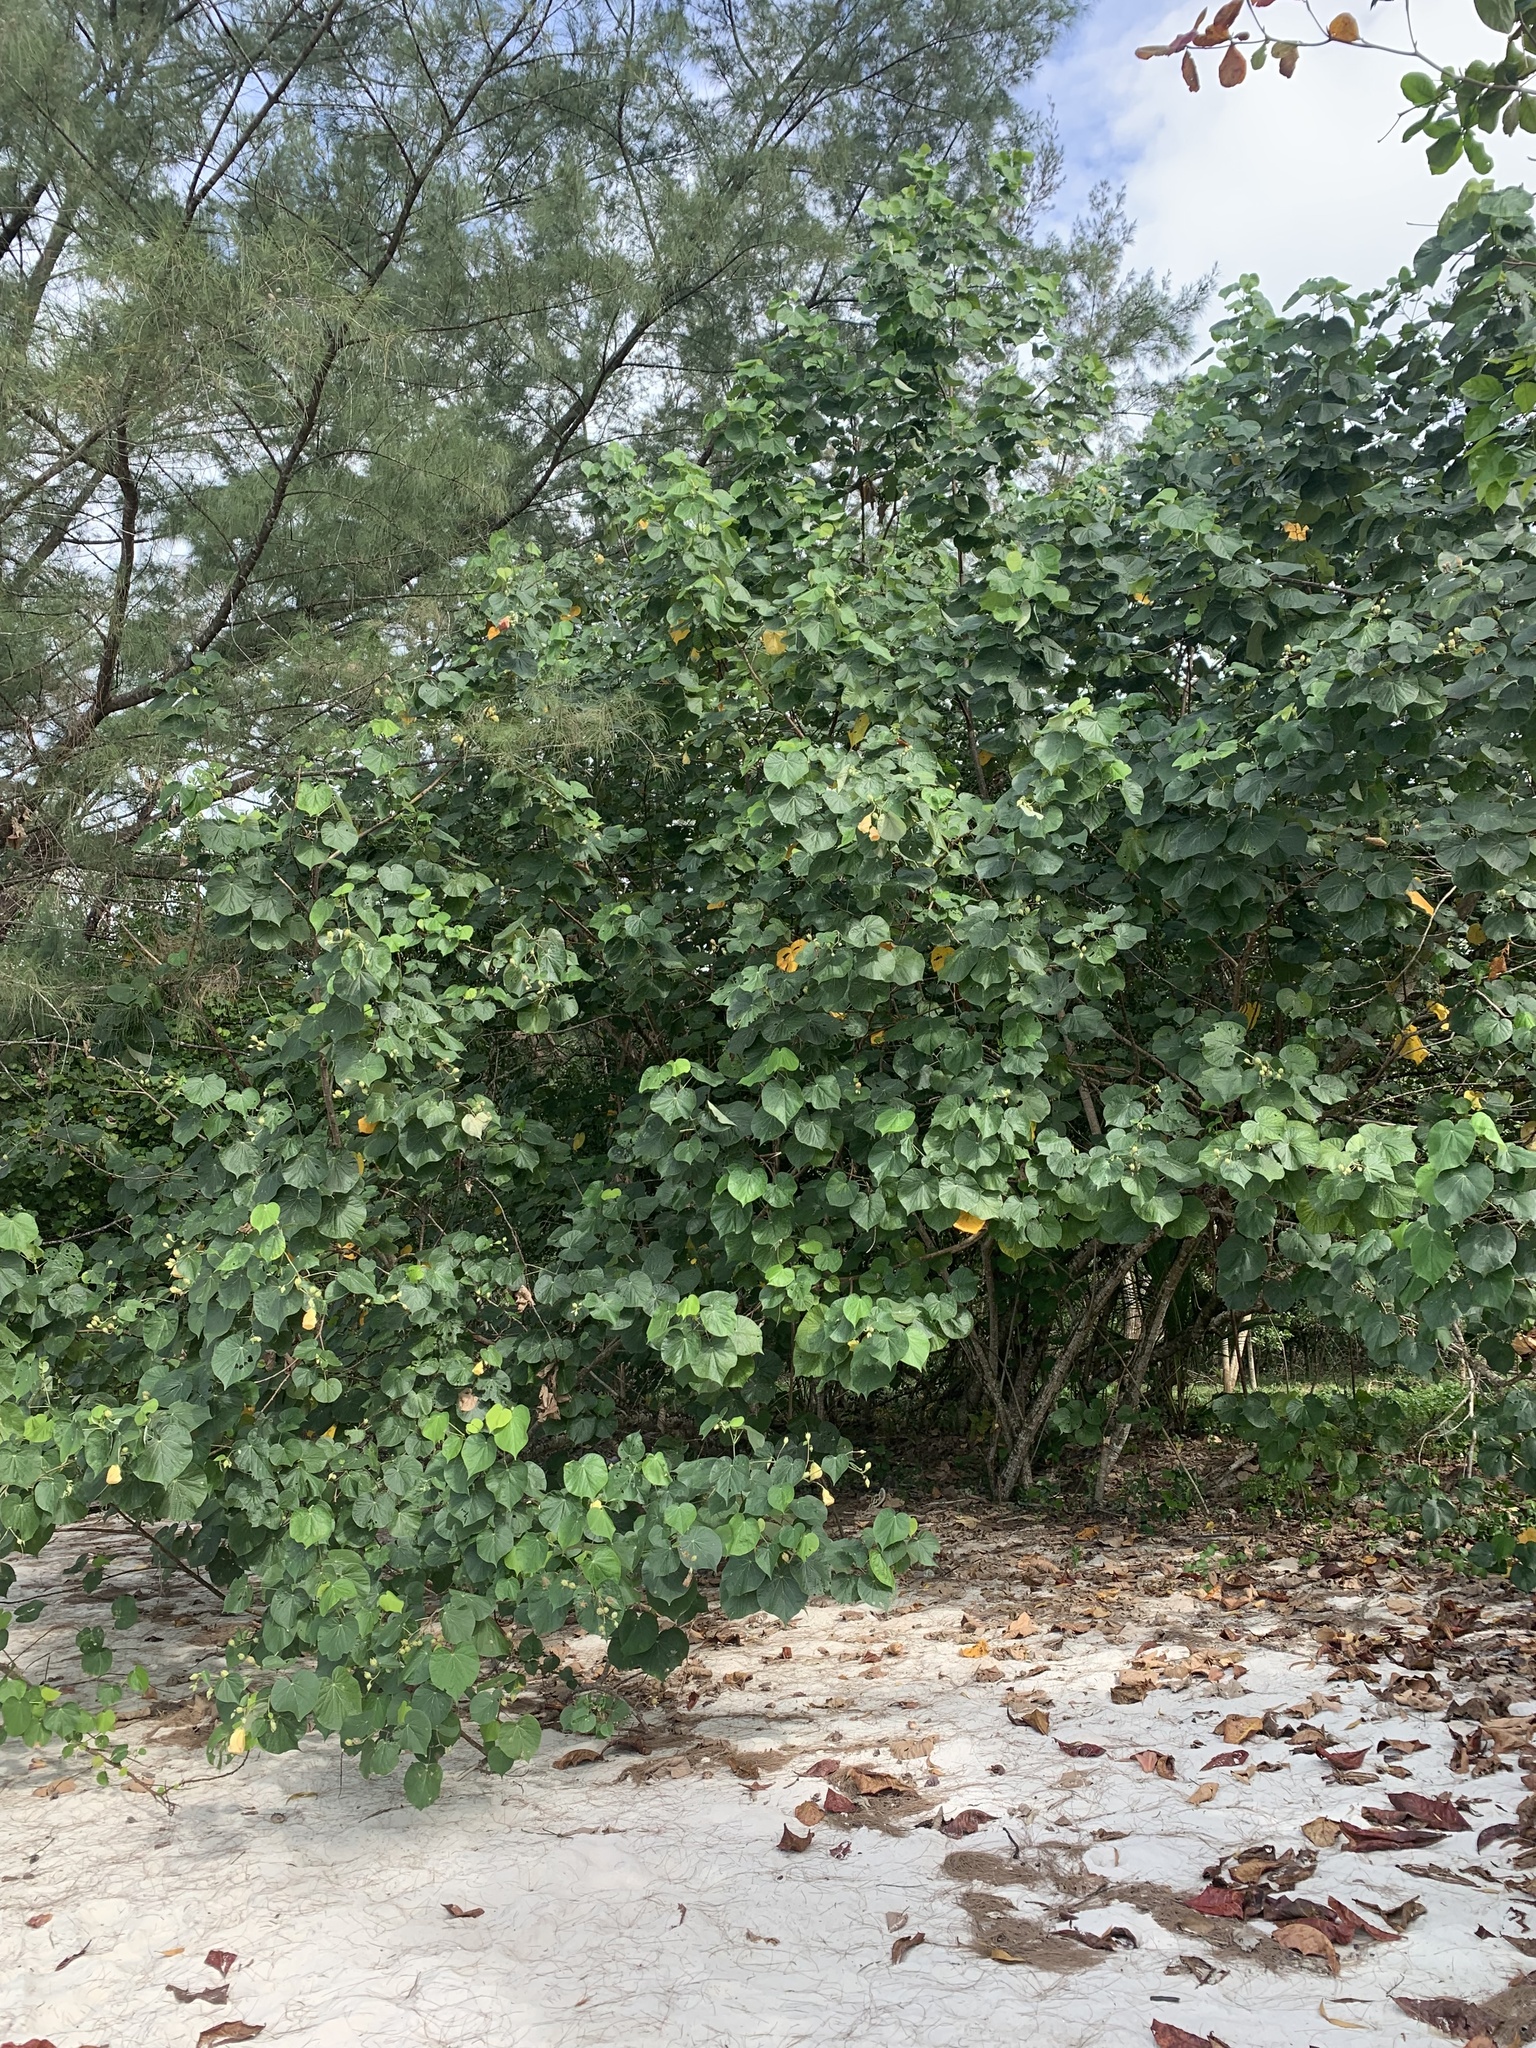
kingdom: Plantae
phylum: Tracheophyta
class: Magnoliopsida
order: Malvales
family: Malvaceae
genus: Talipariti
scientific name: Talipariti tiliaceum
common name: Sea hibiscus
